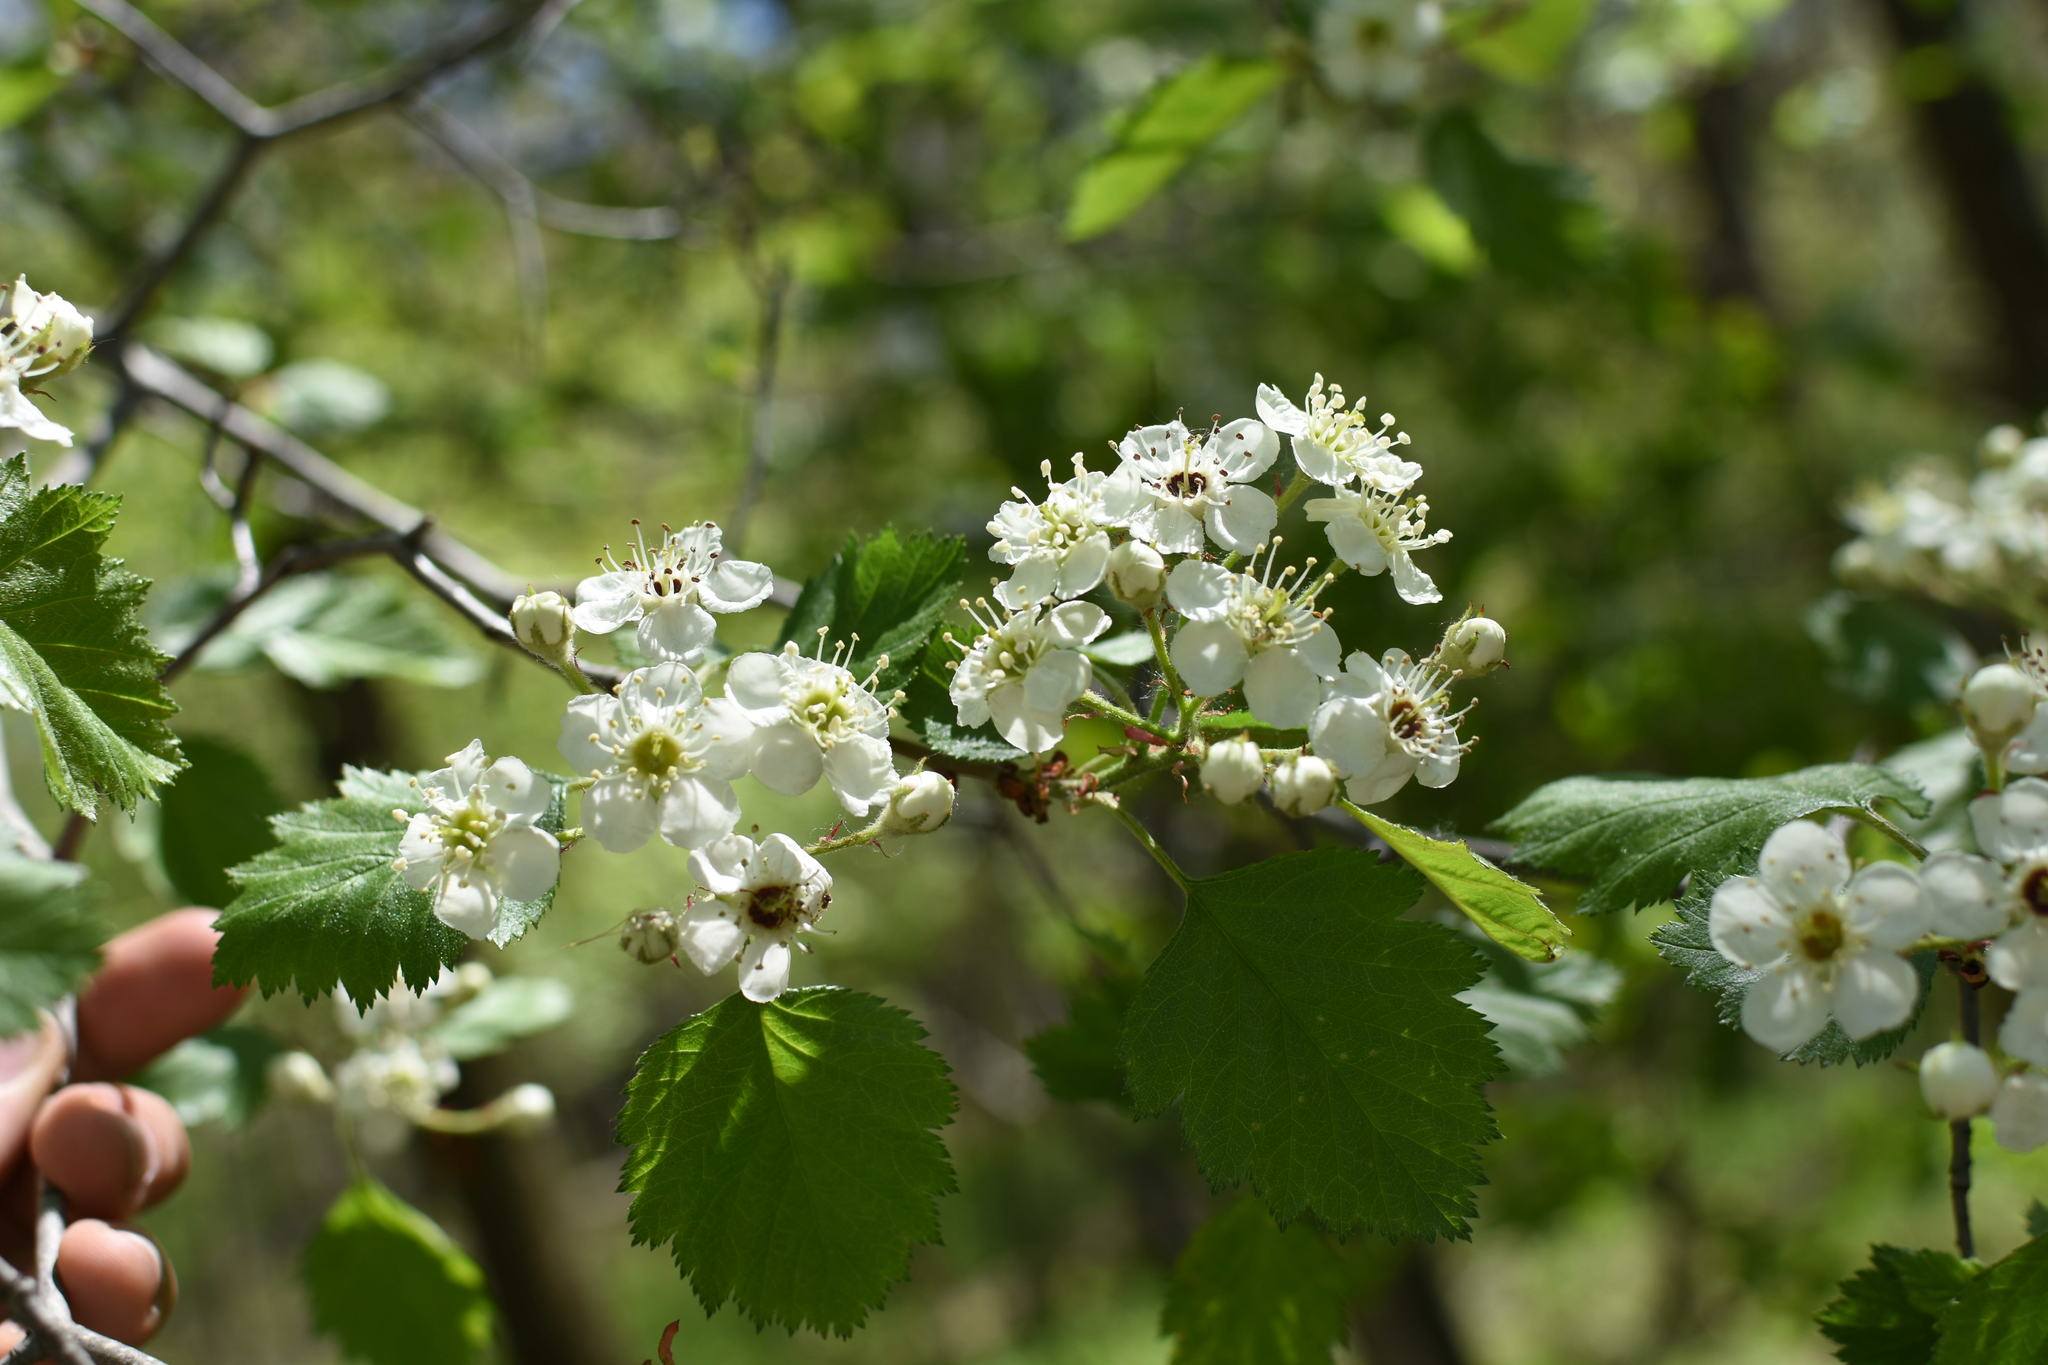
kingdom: Plantae
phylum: Tracheophyta
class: Magnoliopsida
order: Rosales
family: Rosaceae
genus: Crataegus
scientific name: Crataegus submollis
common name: Hairy cockspurthorn
